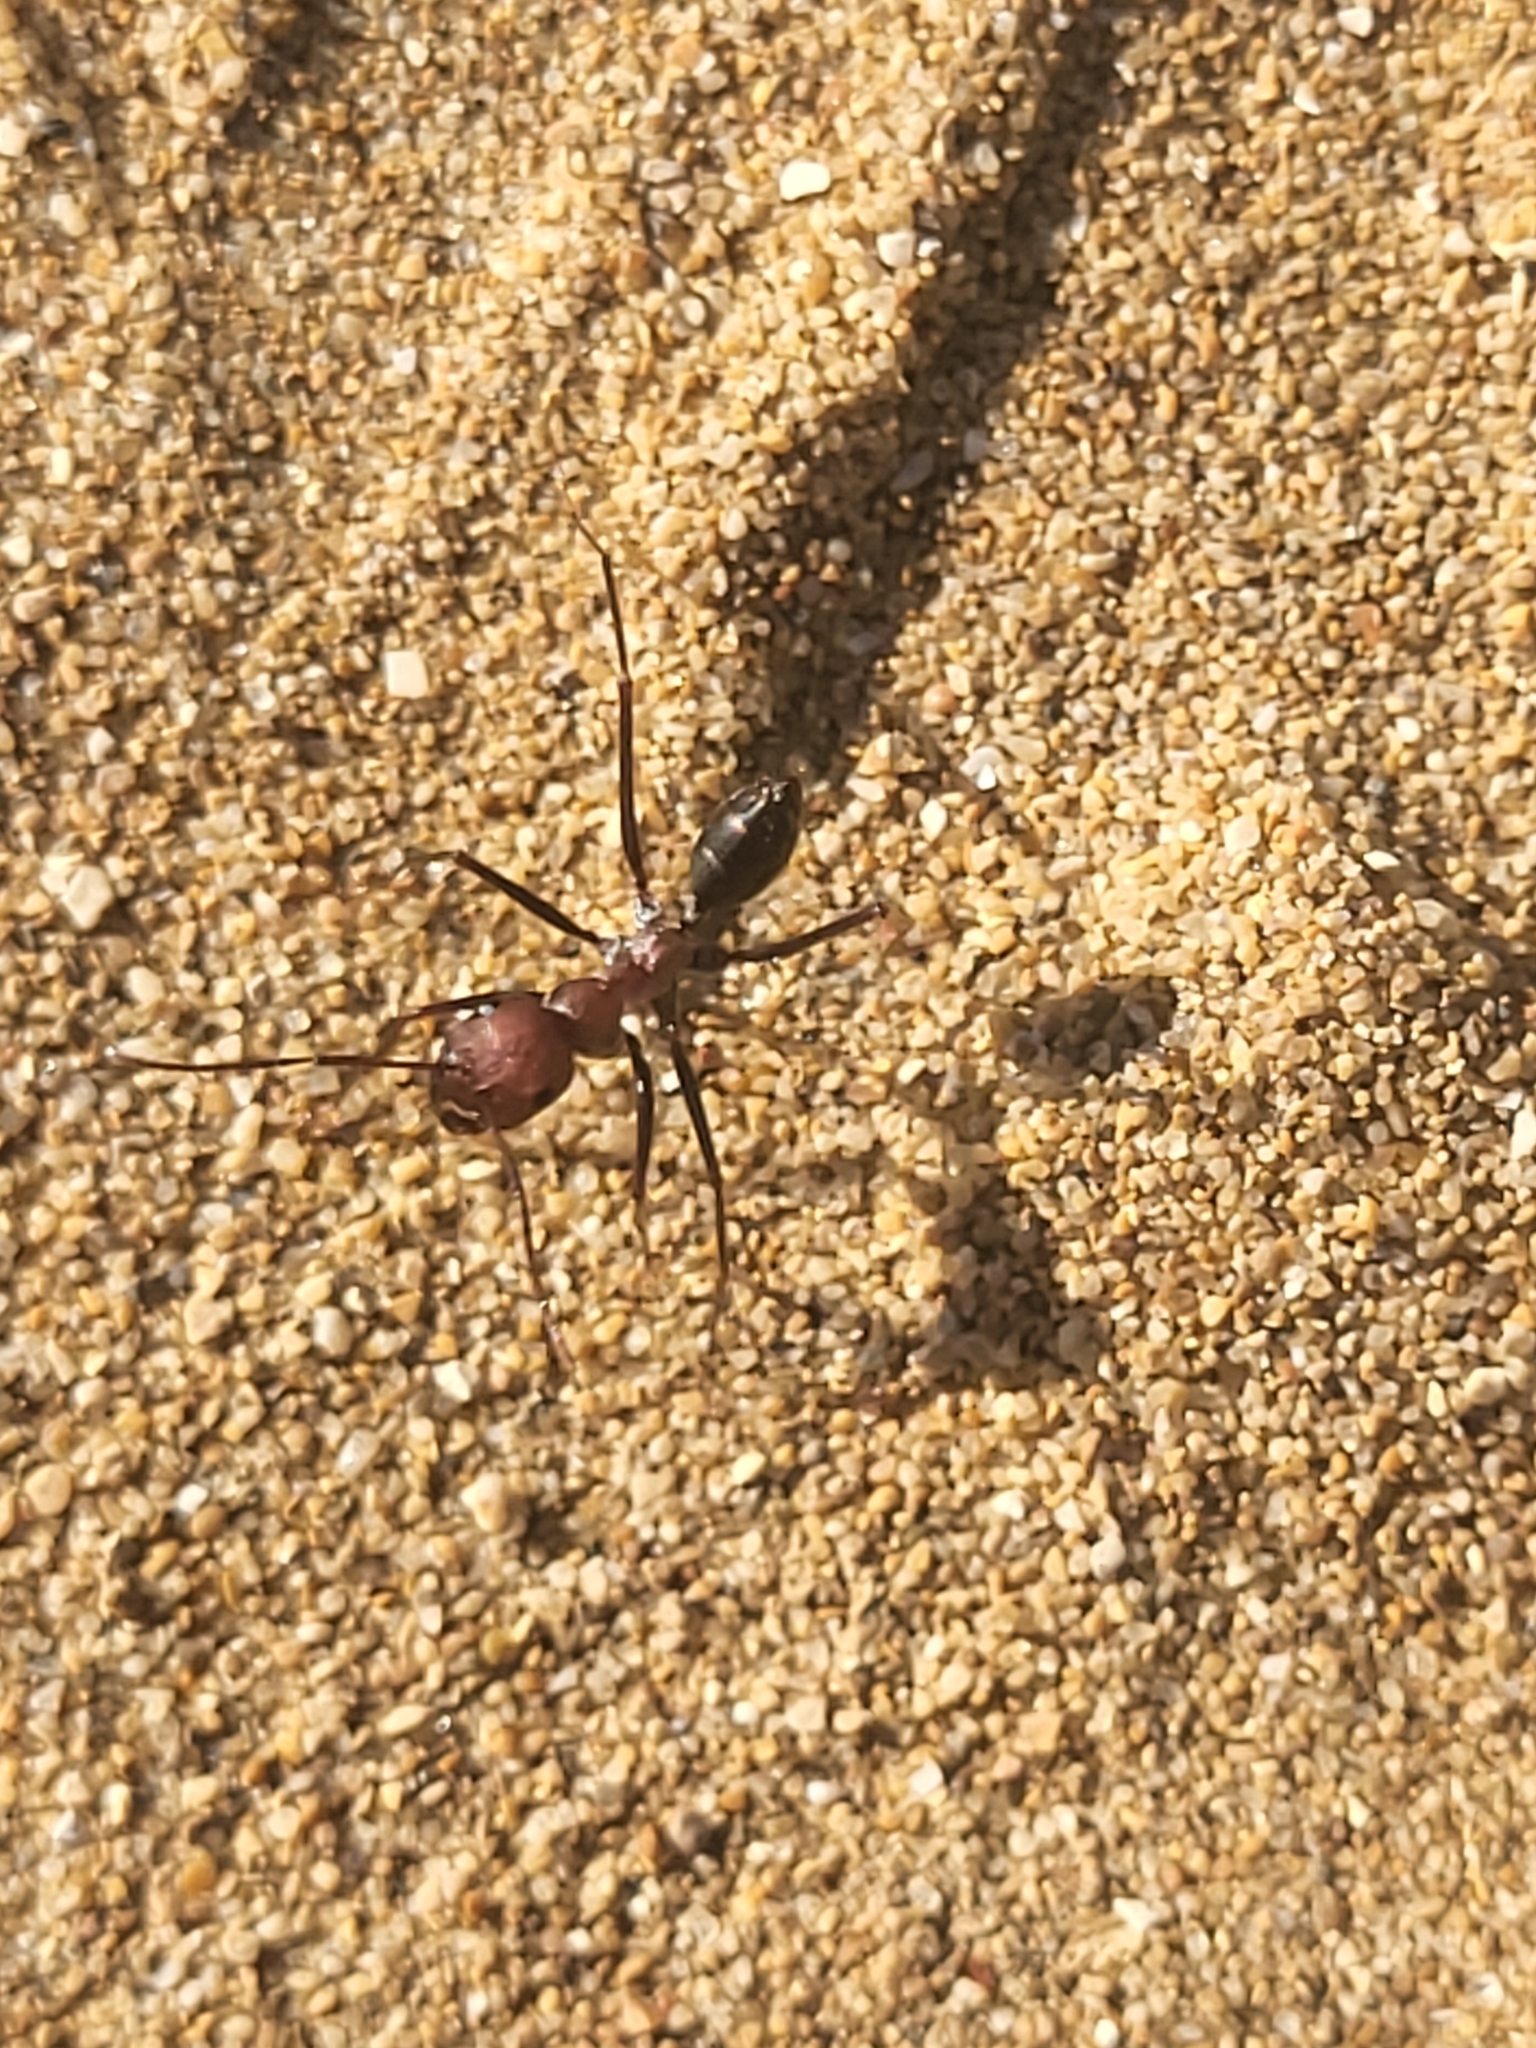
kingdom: Animalia
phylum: Arthropoda
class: Insecta
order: Hymenoptera
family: Formicidae
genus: Cataglyphis
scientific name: Cataglyphis nodus
